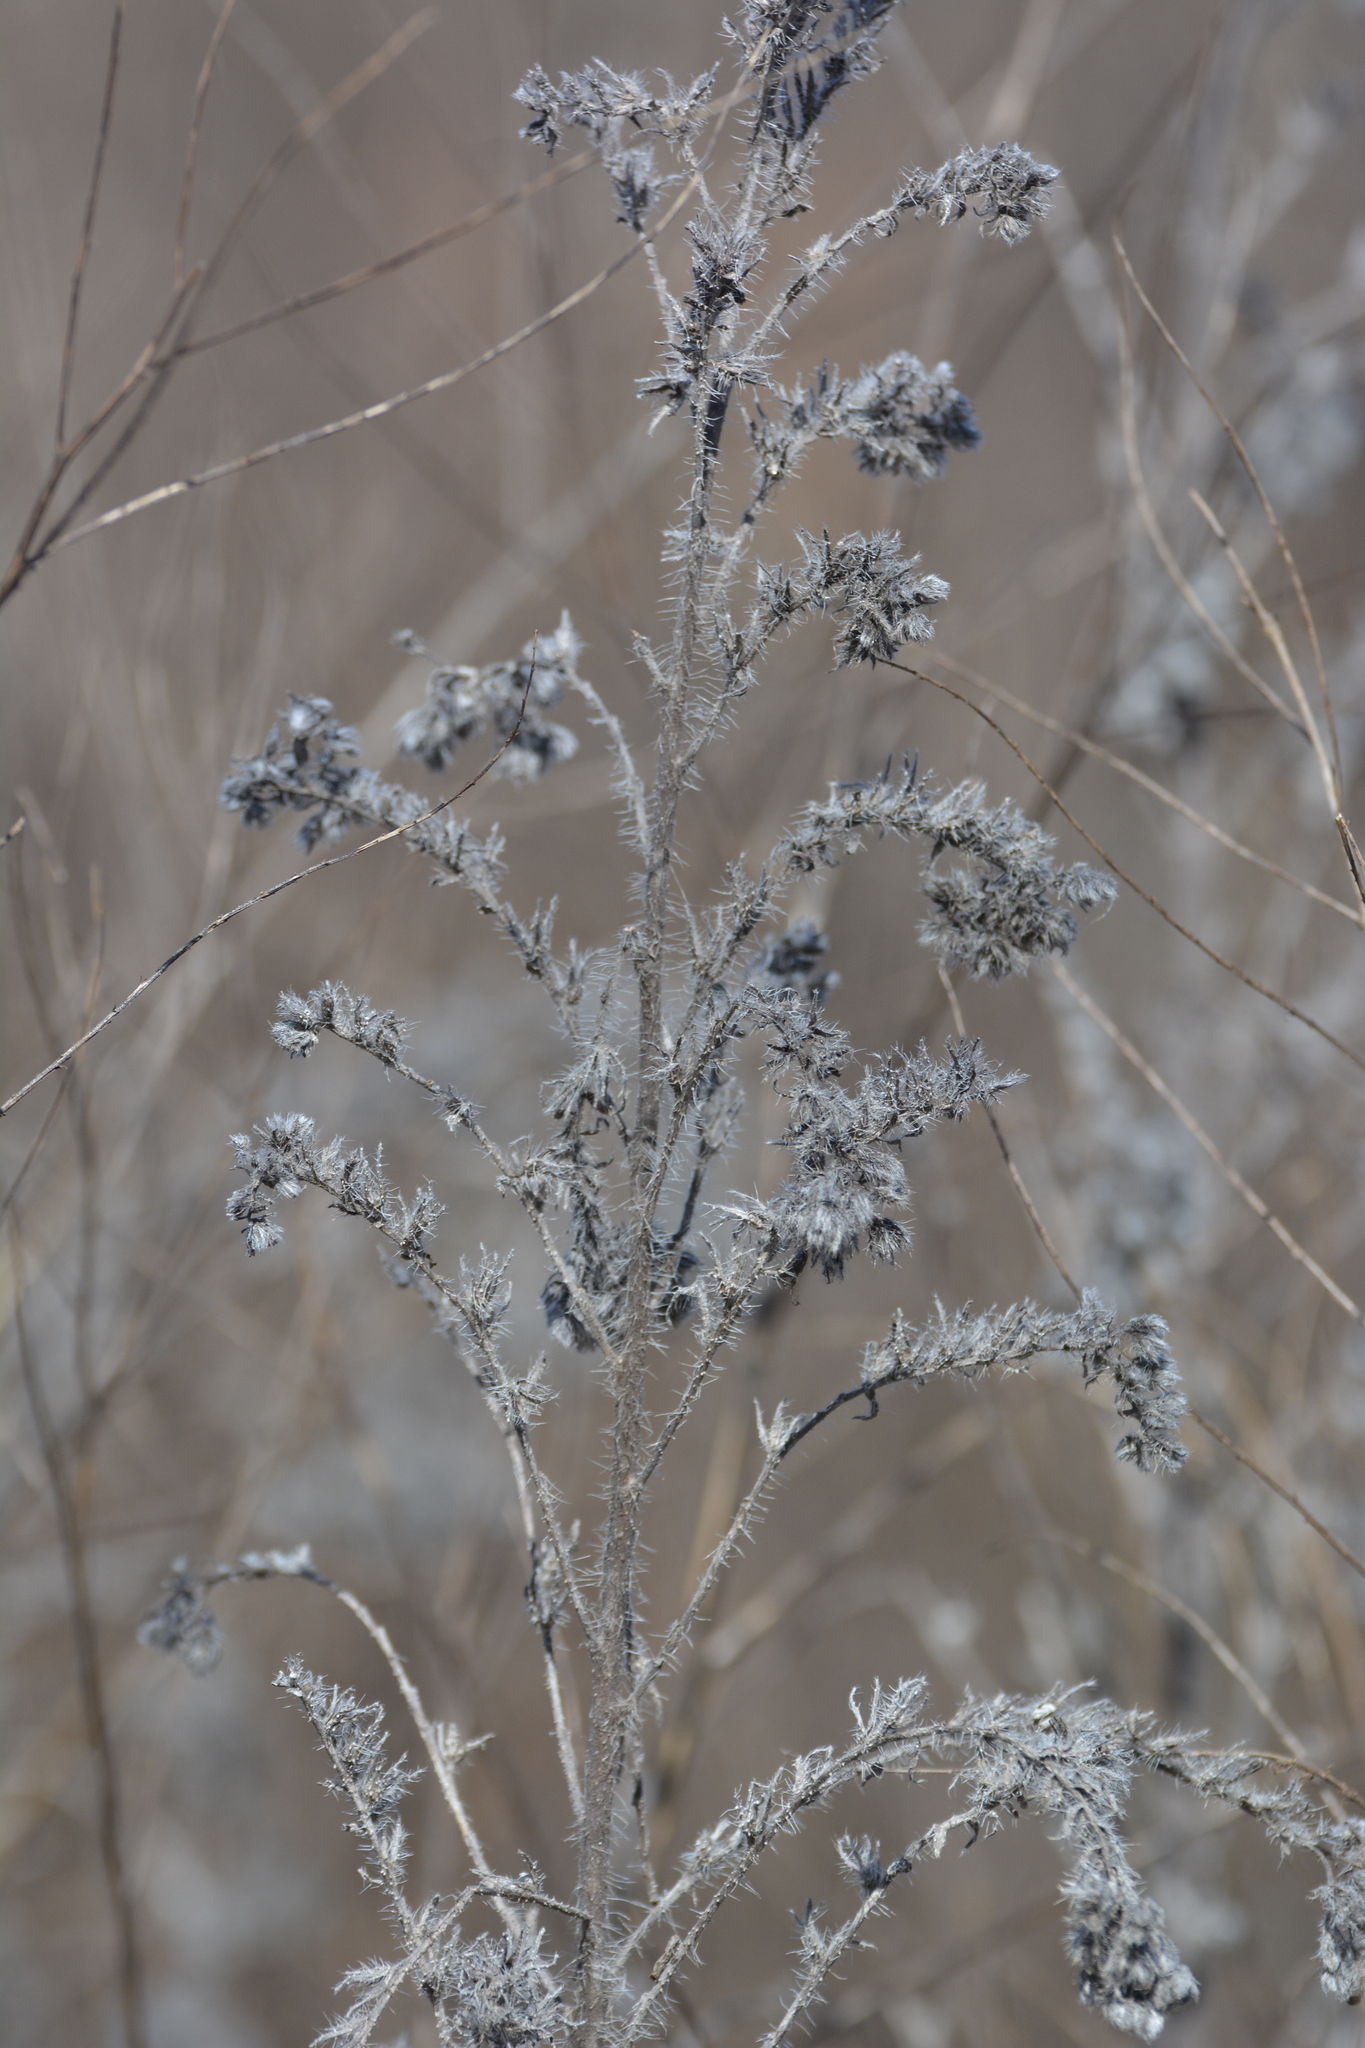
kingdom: Plantae
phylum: Tracheophyta
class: Magnoliopsida
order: Boraginales
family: Boraginaceae
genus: Echium
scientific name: Echium vulgare
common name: Common viper's bugloss
